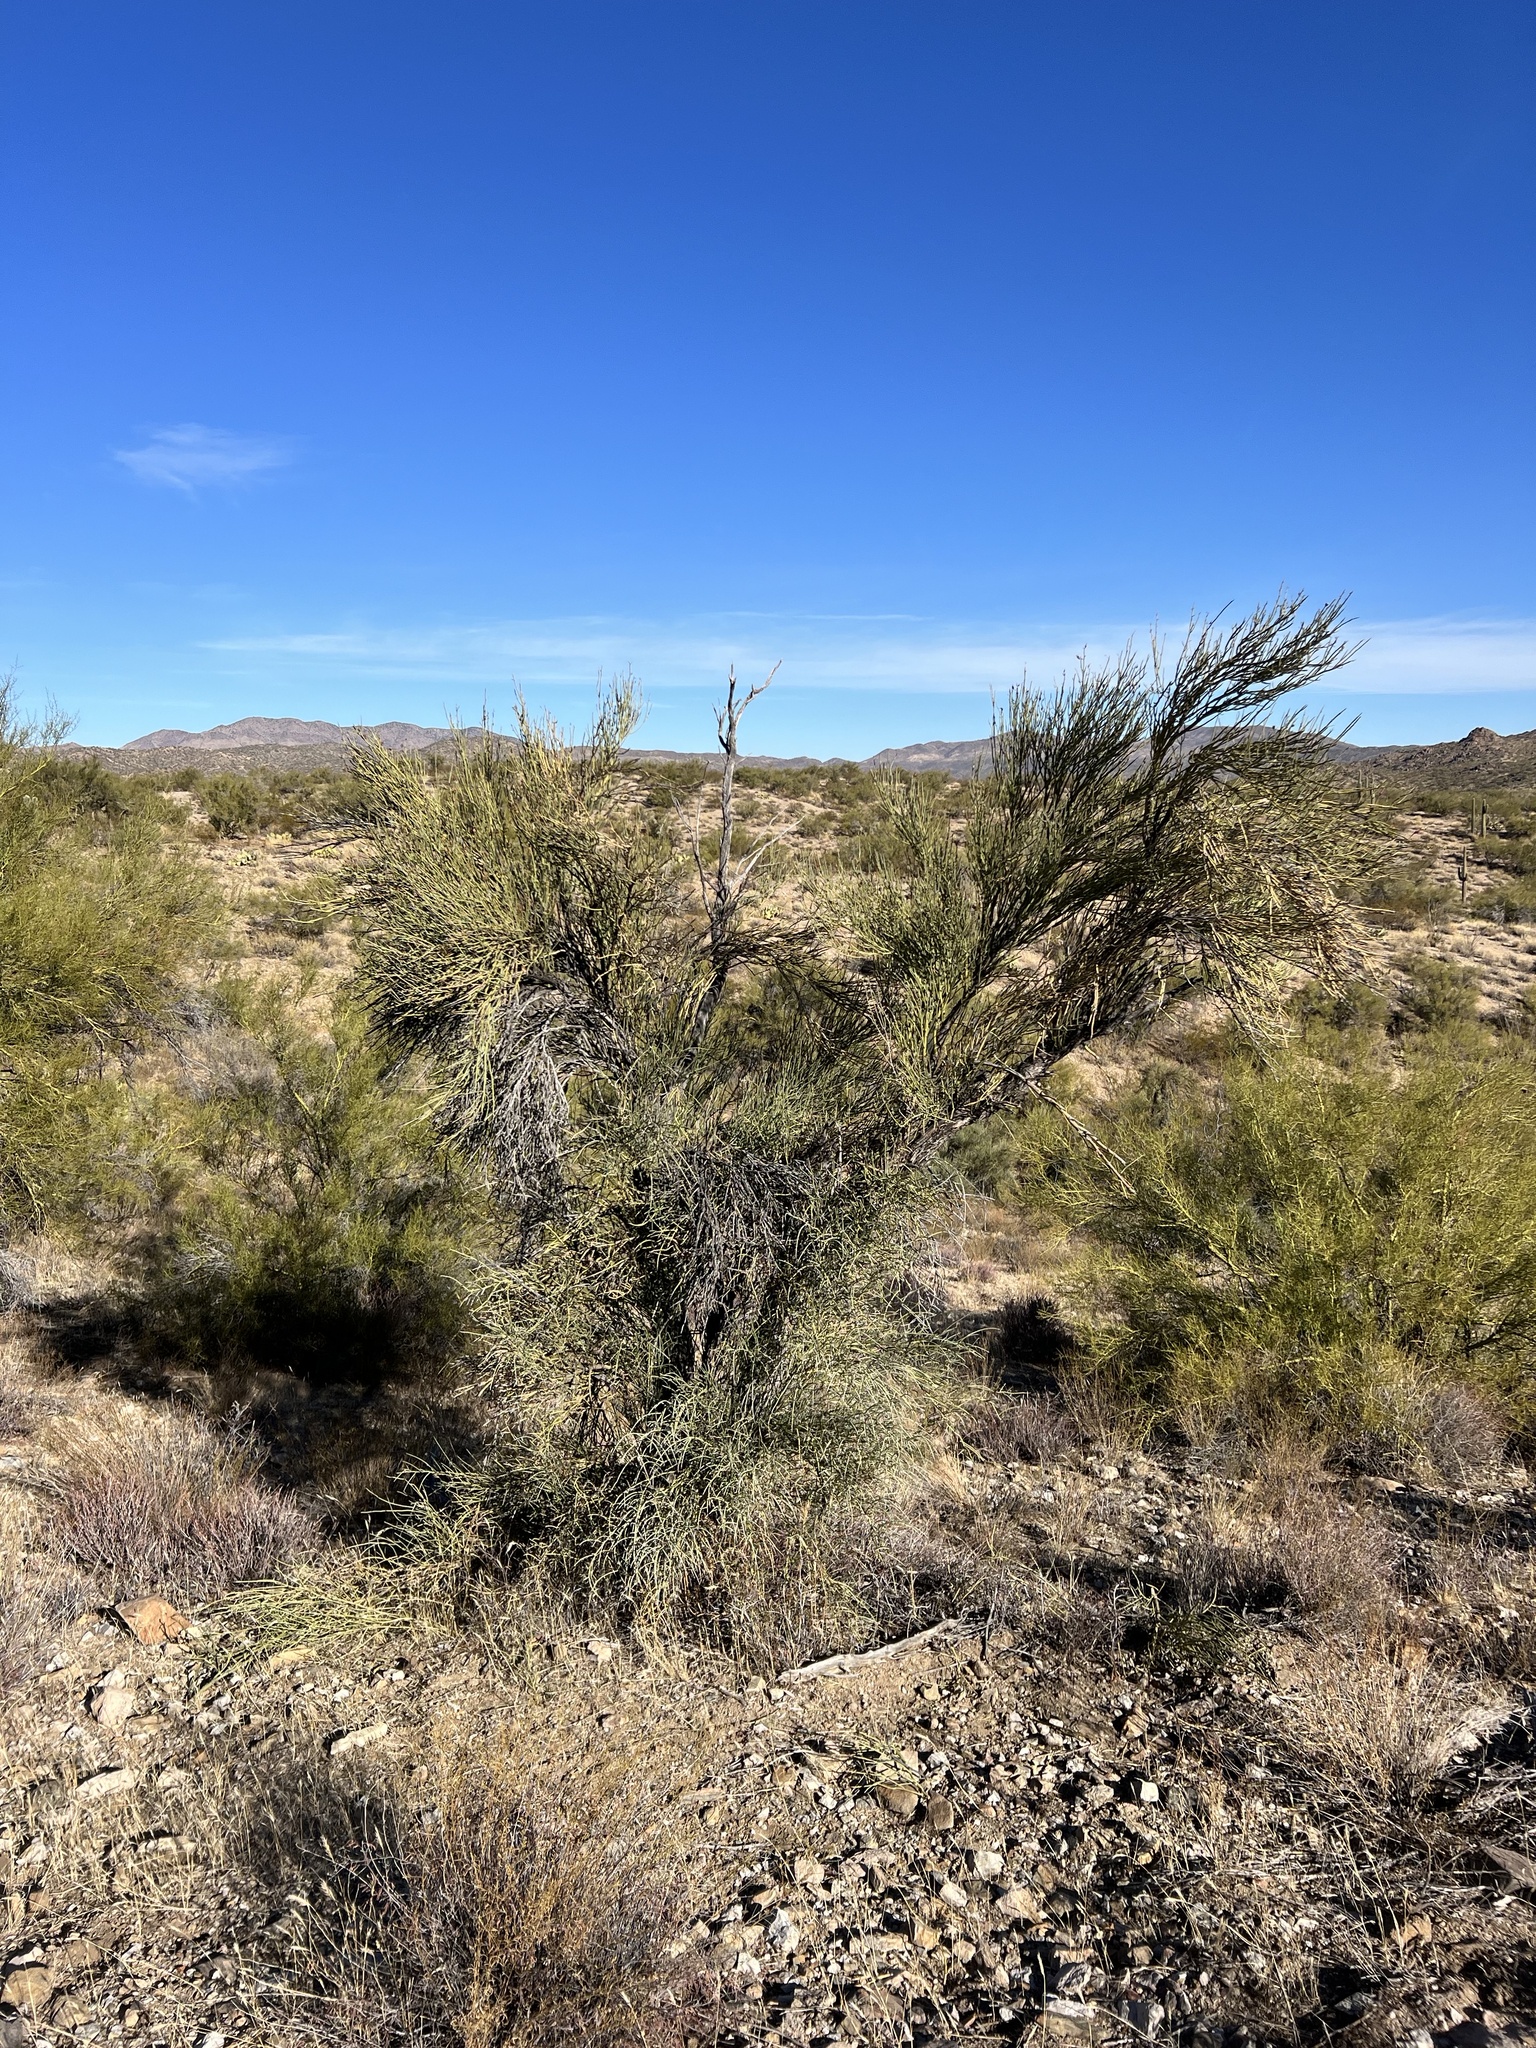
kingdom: Plantae
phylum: Tracheophyta
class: Magnoliopsida
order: Celastrales
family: Celastraceae
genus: Canotia
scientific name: Canotia holacantha
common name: Crucifixion thorns
